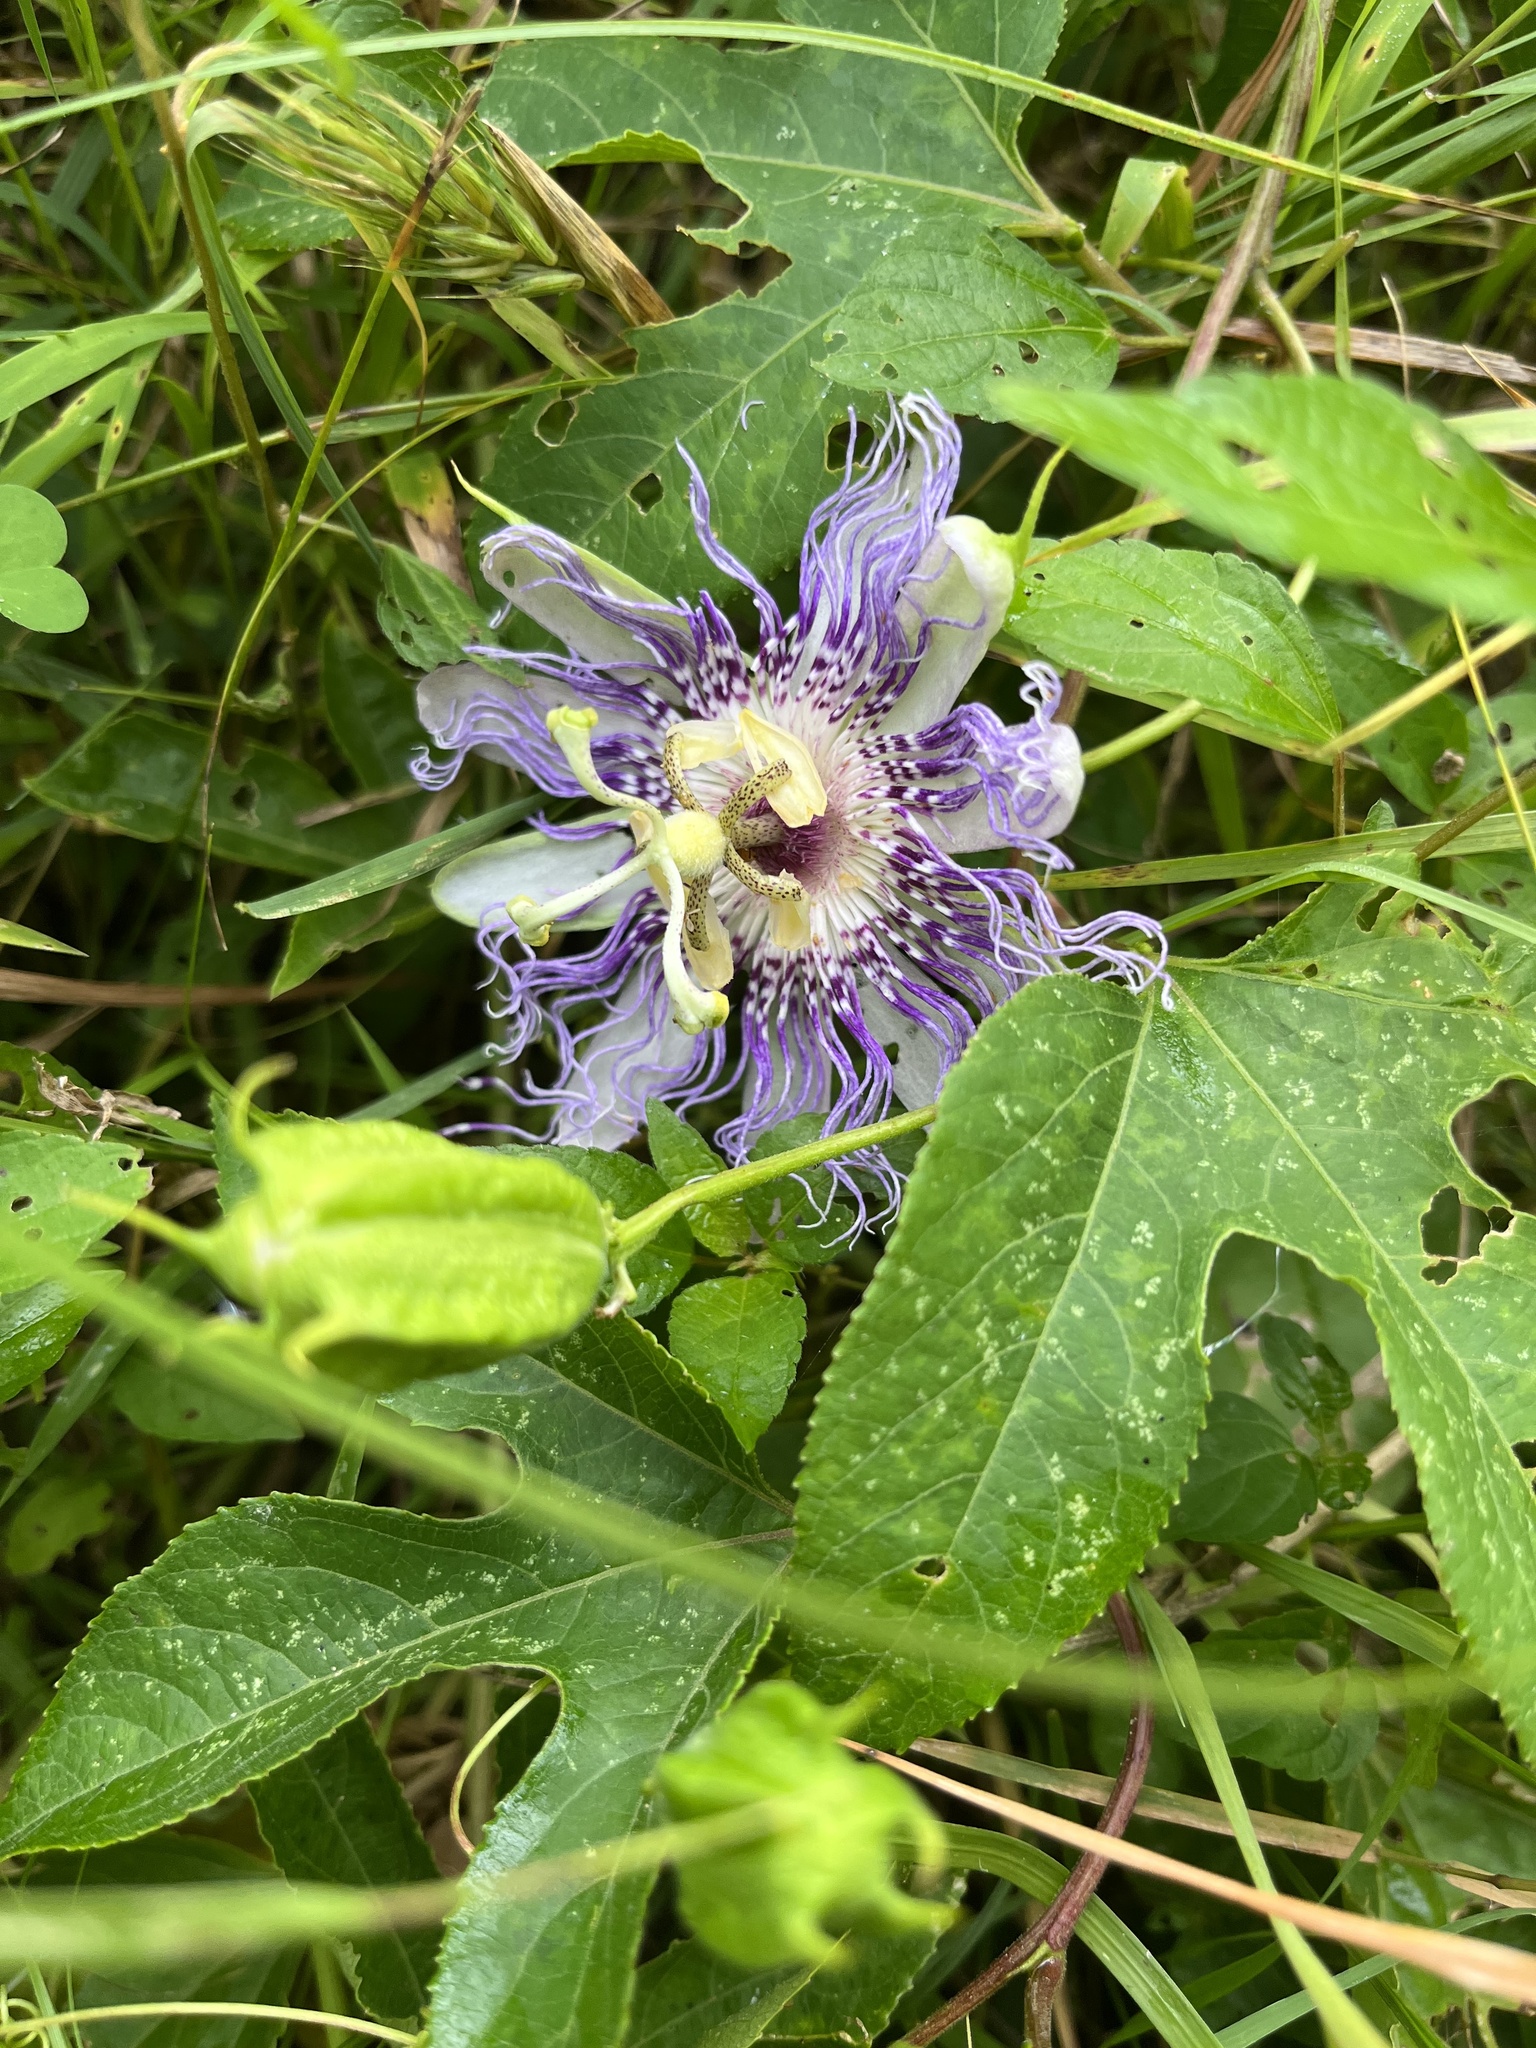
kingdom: Plantae
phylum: Tracheophyta
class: Magnoliopsida
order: Malpighiales
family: Passifloraceae
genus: Passiflora
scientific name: Passiflora incarnata
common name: Apricot-vine
